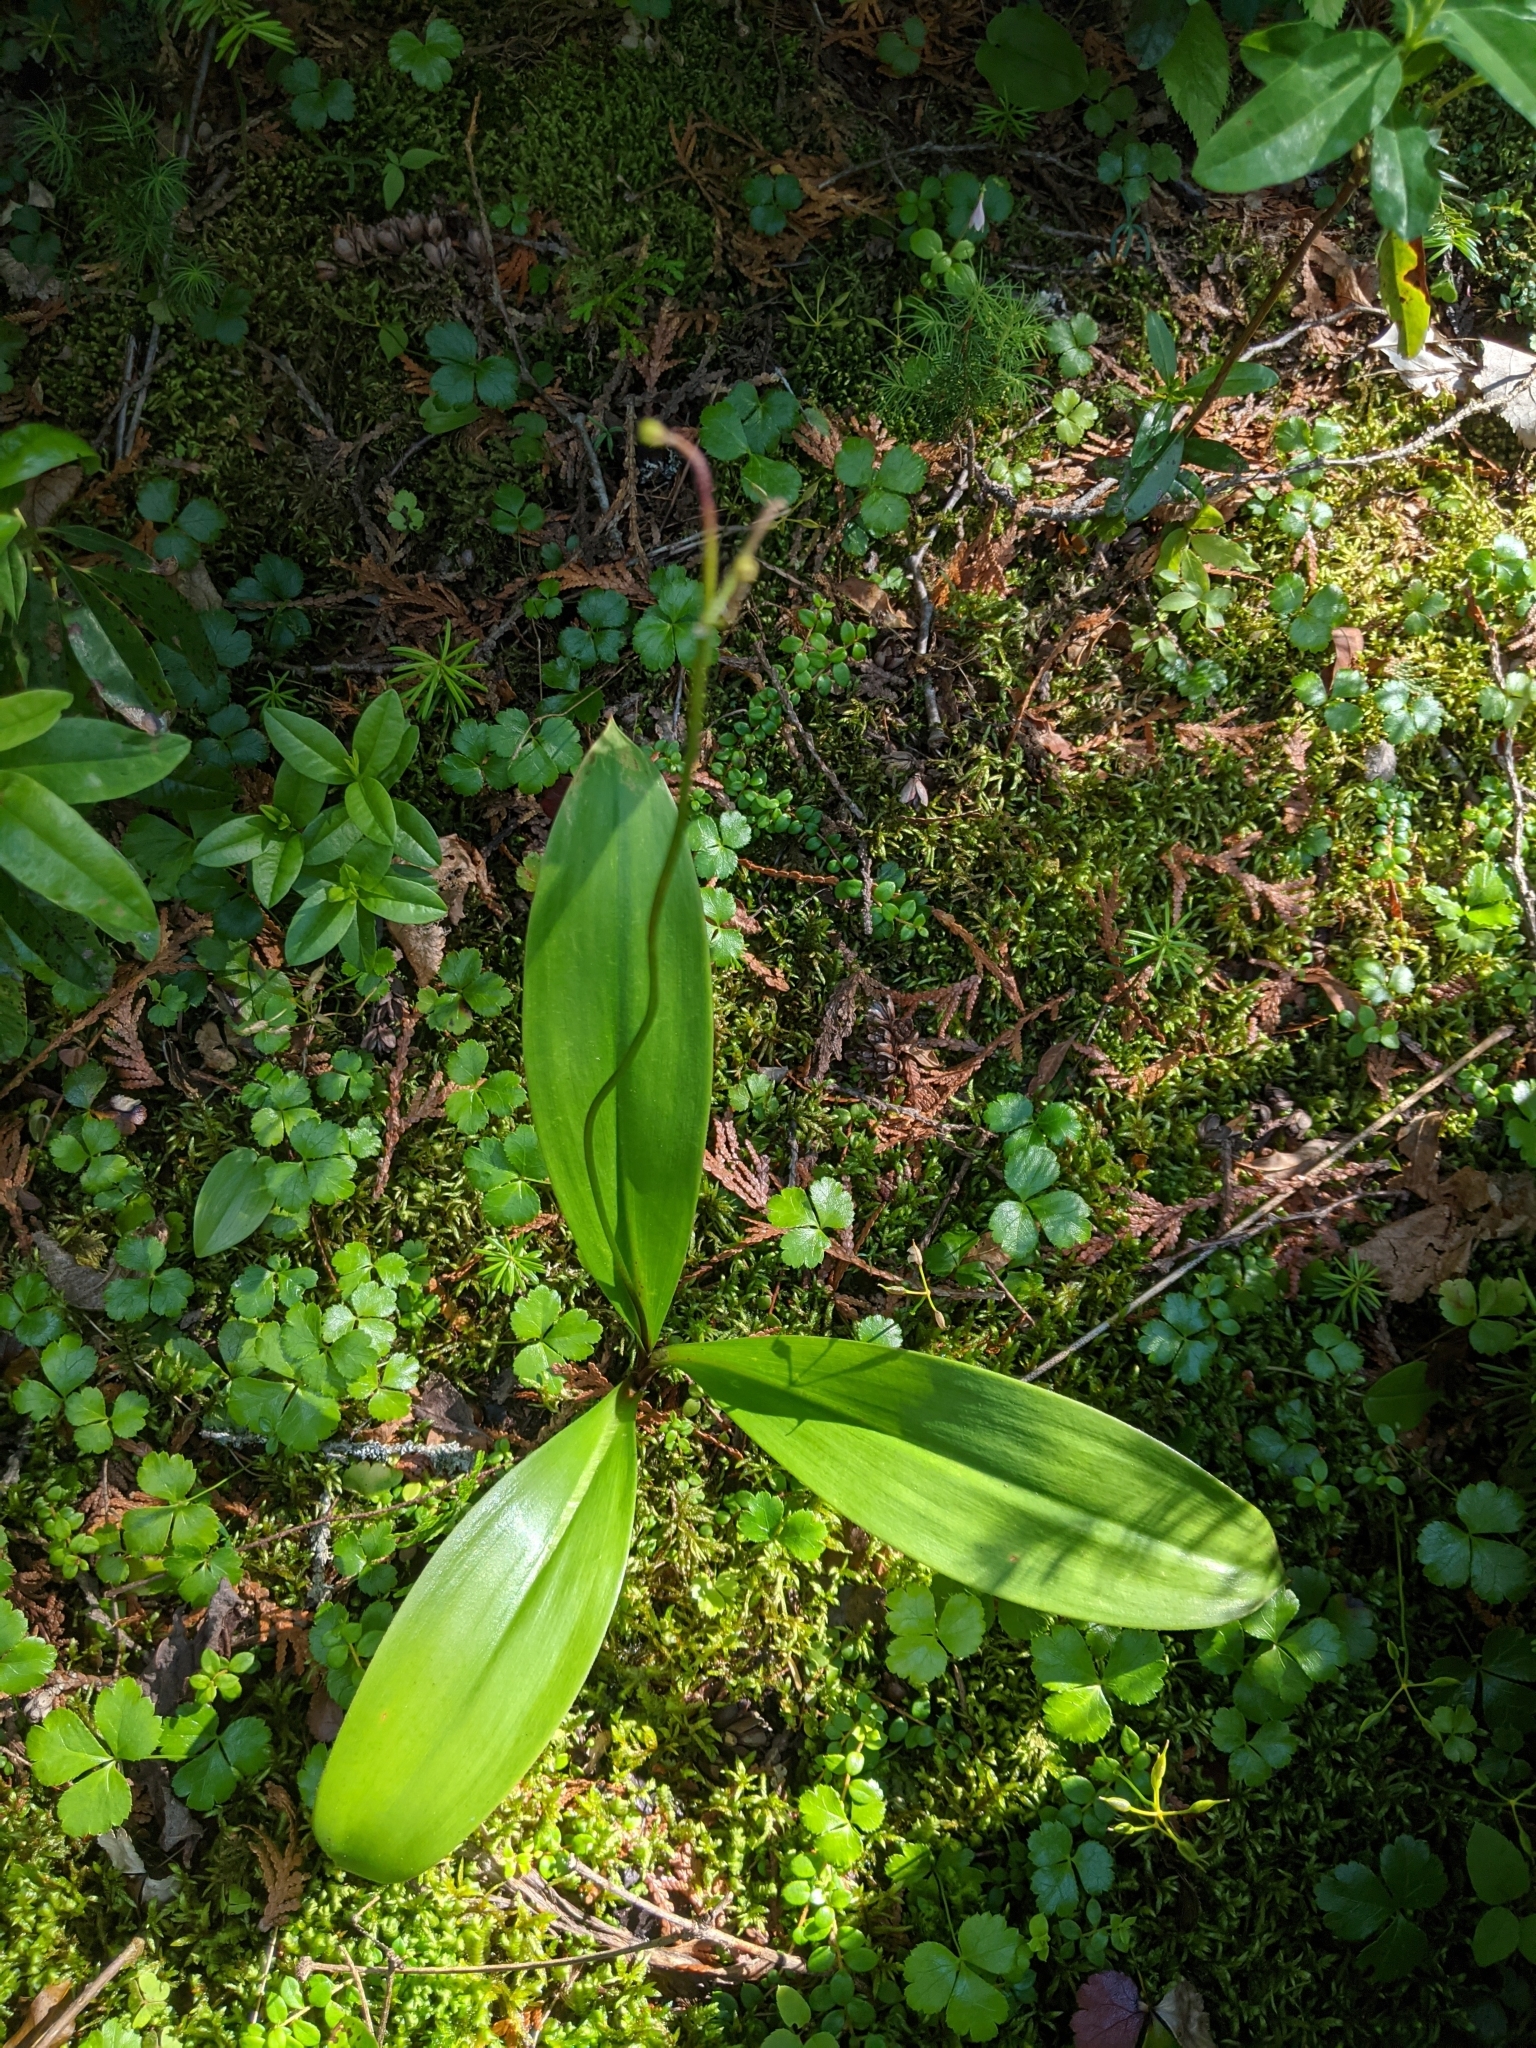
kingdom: Plantae
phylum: Tracheophyta
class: Liliopsida
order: Liliales
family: Liliaceae
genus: Clintonia
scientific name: Clintonia borealis
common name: Yellow clintonia
